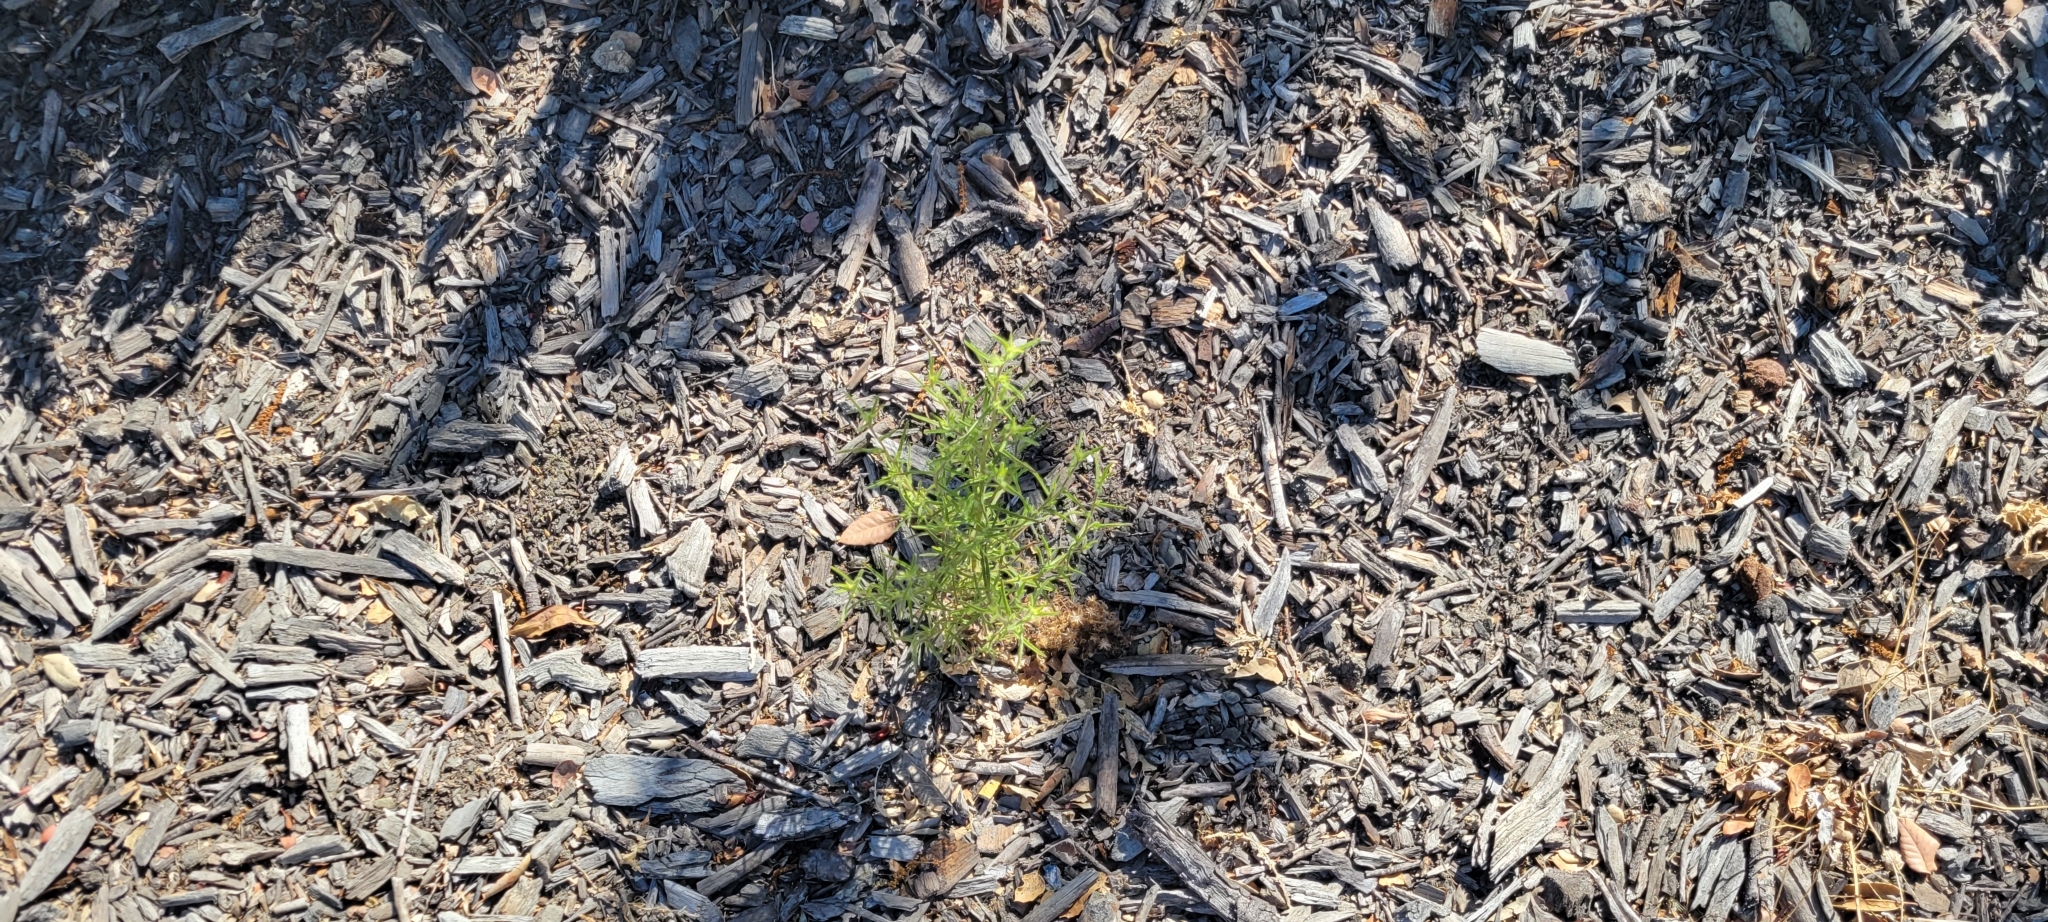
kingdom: Plantae
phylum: Tracheophyta
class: Magnoliopsida
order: Asterales
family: Asteraceae
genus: Dittrichia
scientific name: Dittrichia graveolens
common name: Stinking fleabane
